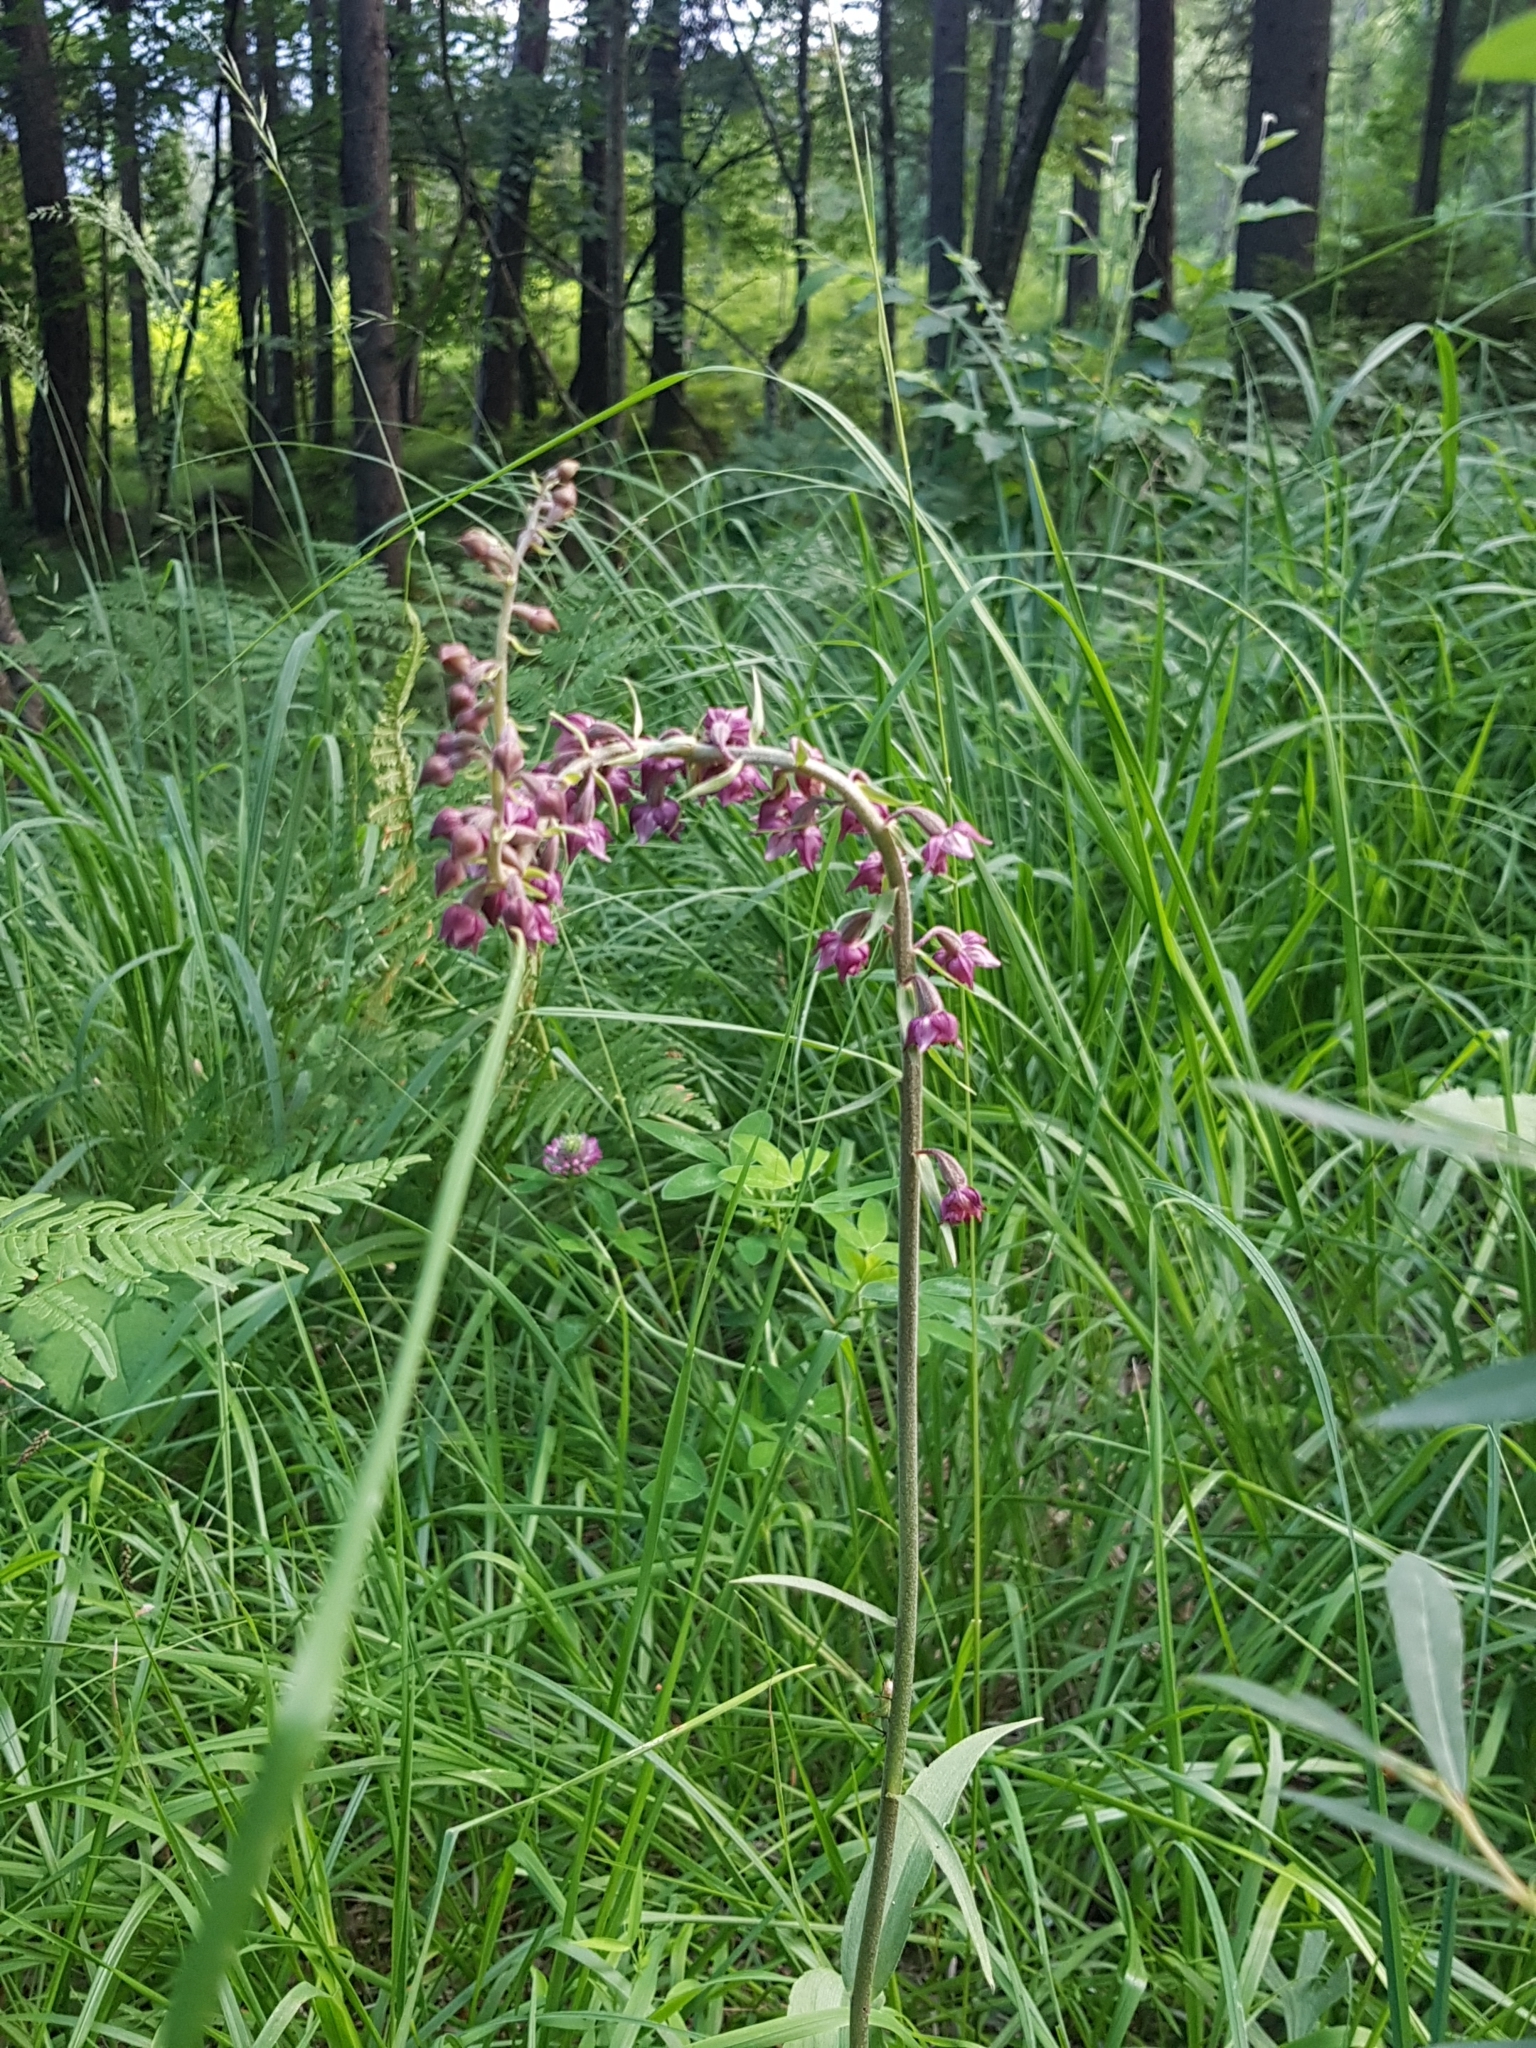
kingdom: Plantae
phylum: Tracheophyta
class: Liliopsida
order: Asparagales
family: Orchidaceae
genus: Epipactis
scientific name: Epipactis atrorubens
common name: Dark-red helleborine
